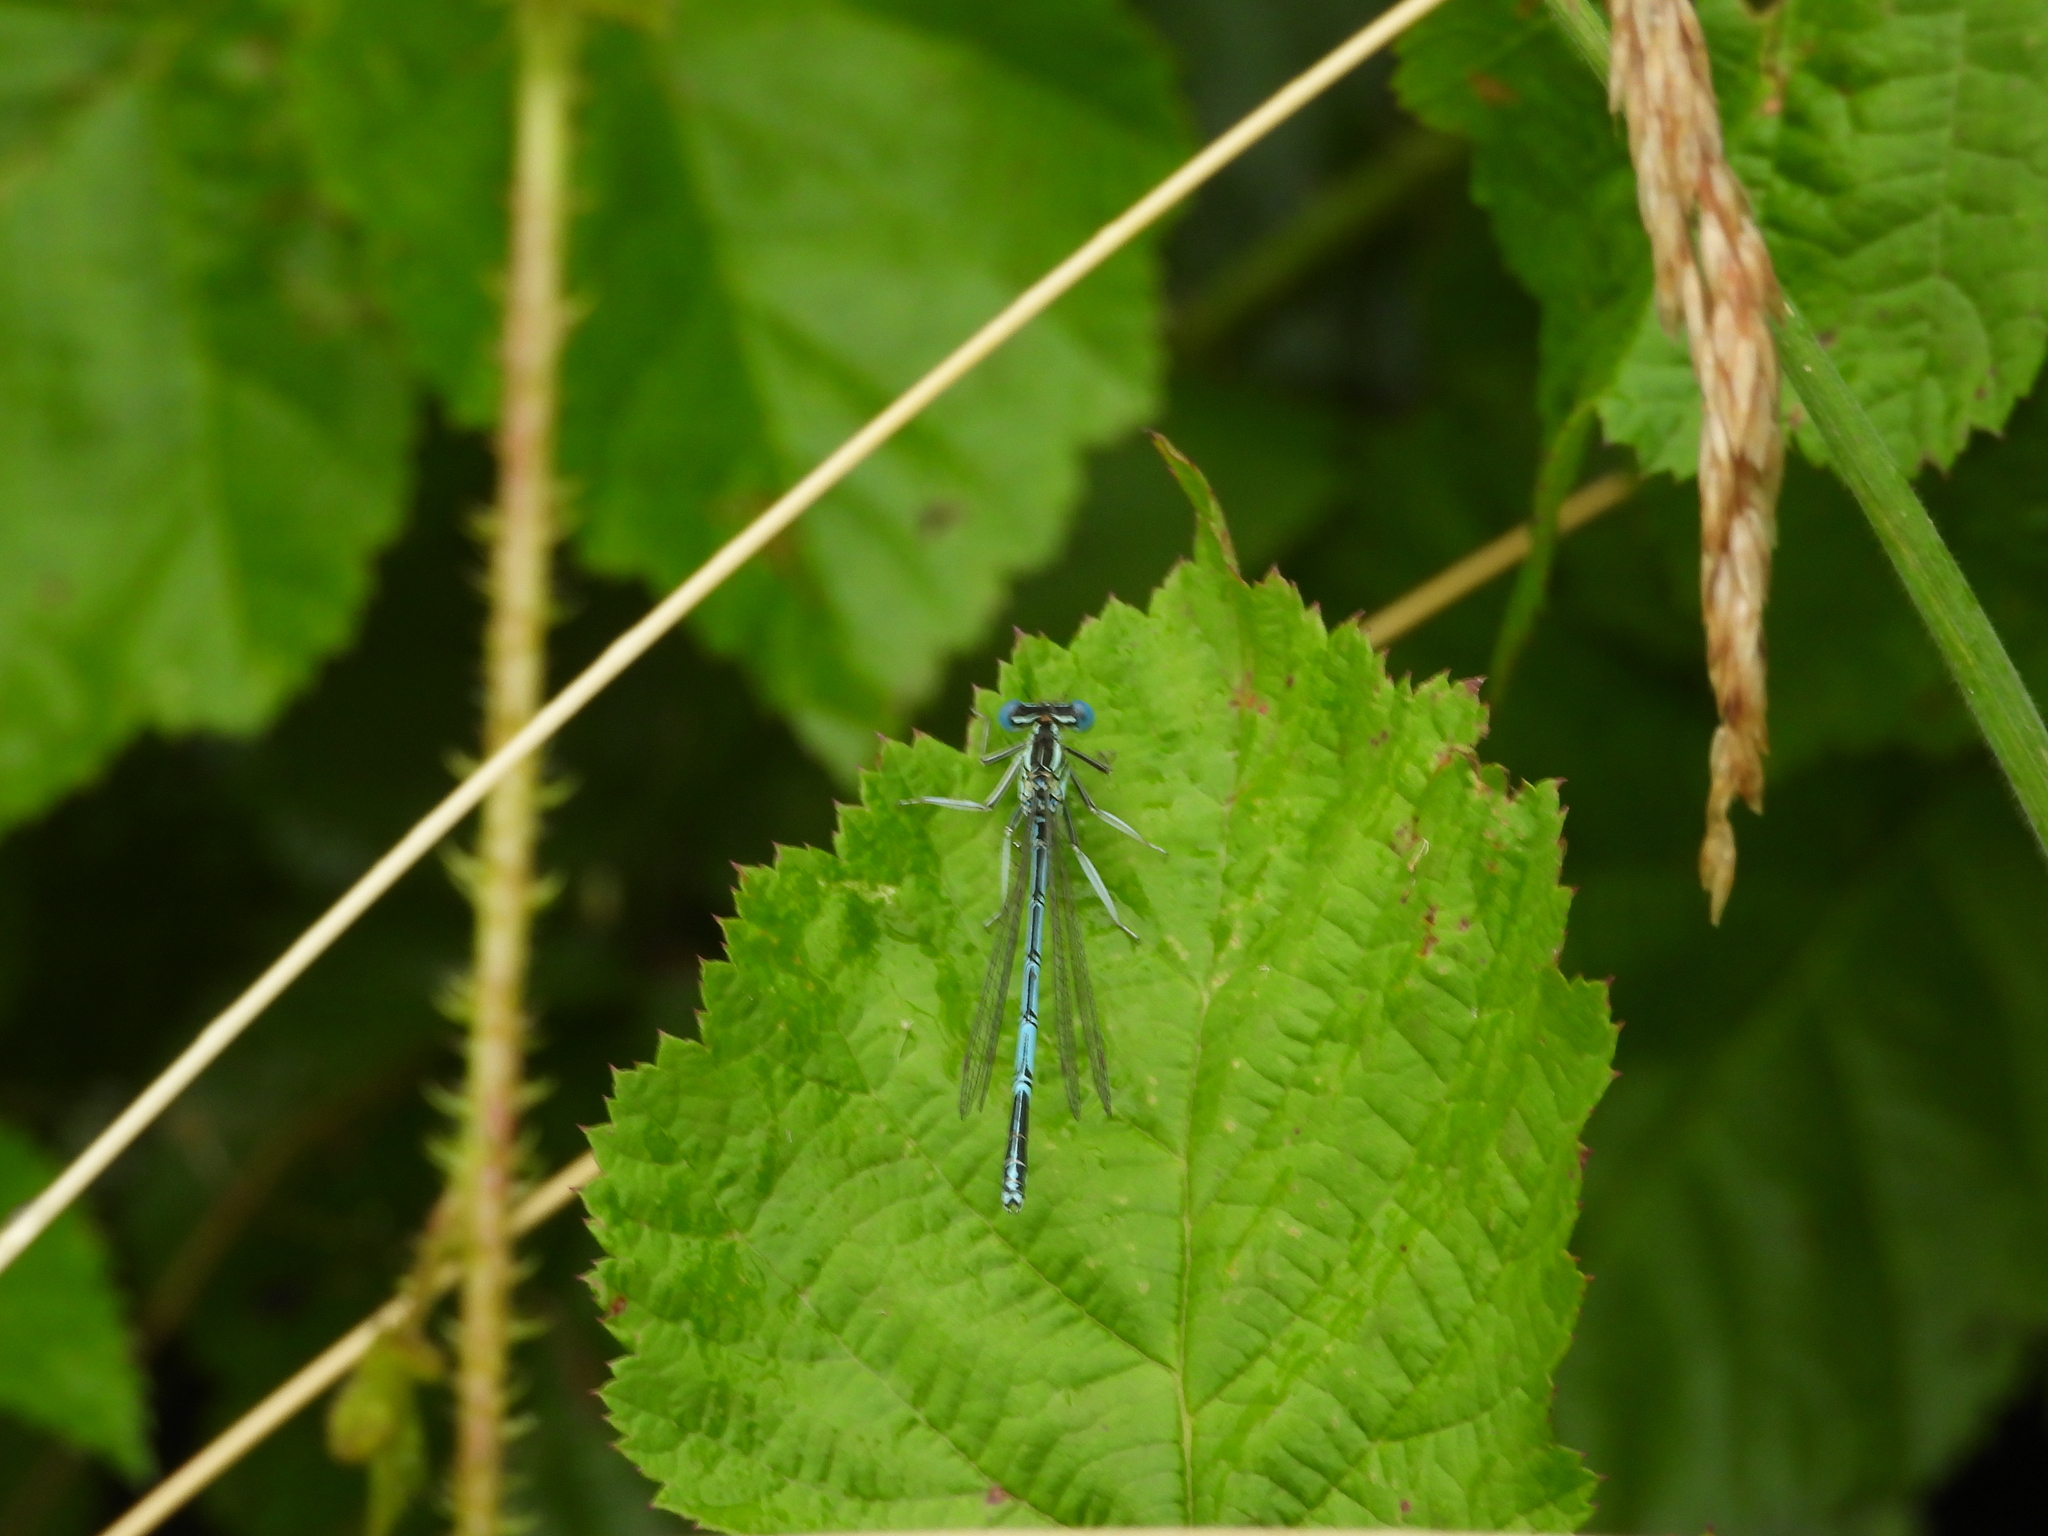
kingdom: Animalia
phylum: Arthropoda
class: Insecta
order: Odonata
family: Platycnemididae
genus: Platycnemis
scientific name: Platycnemis pennipes
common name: White-legged damselfly
